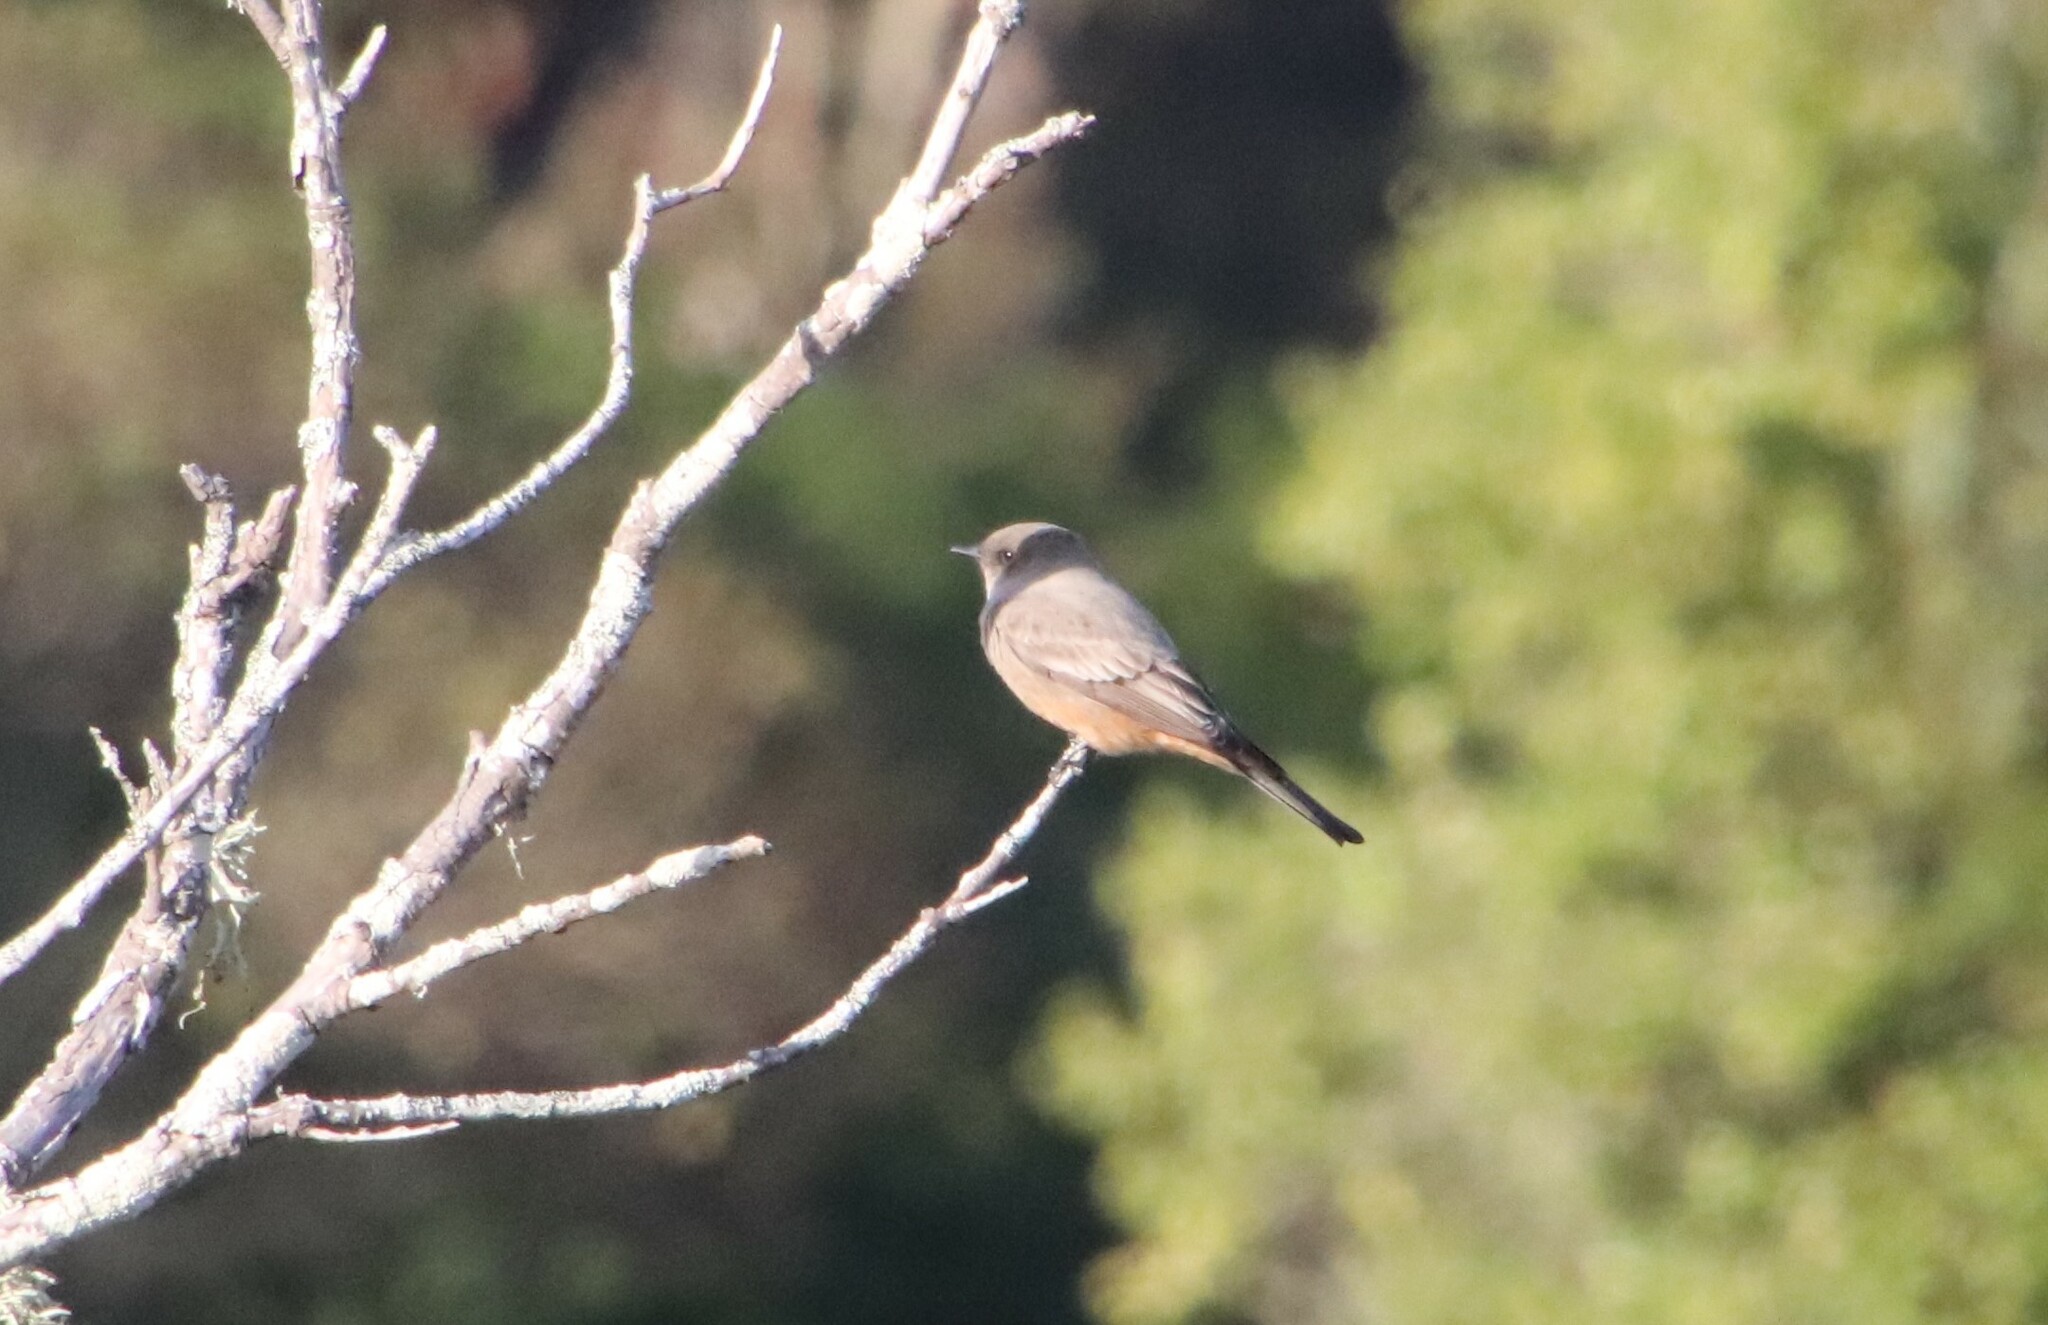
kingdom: Animalia
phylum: Chordata
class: Aves
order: Passeriformes
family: Tyrannidae
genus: Sayornis
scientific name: Sayornis saya
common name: Say's phoebe
